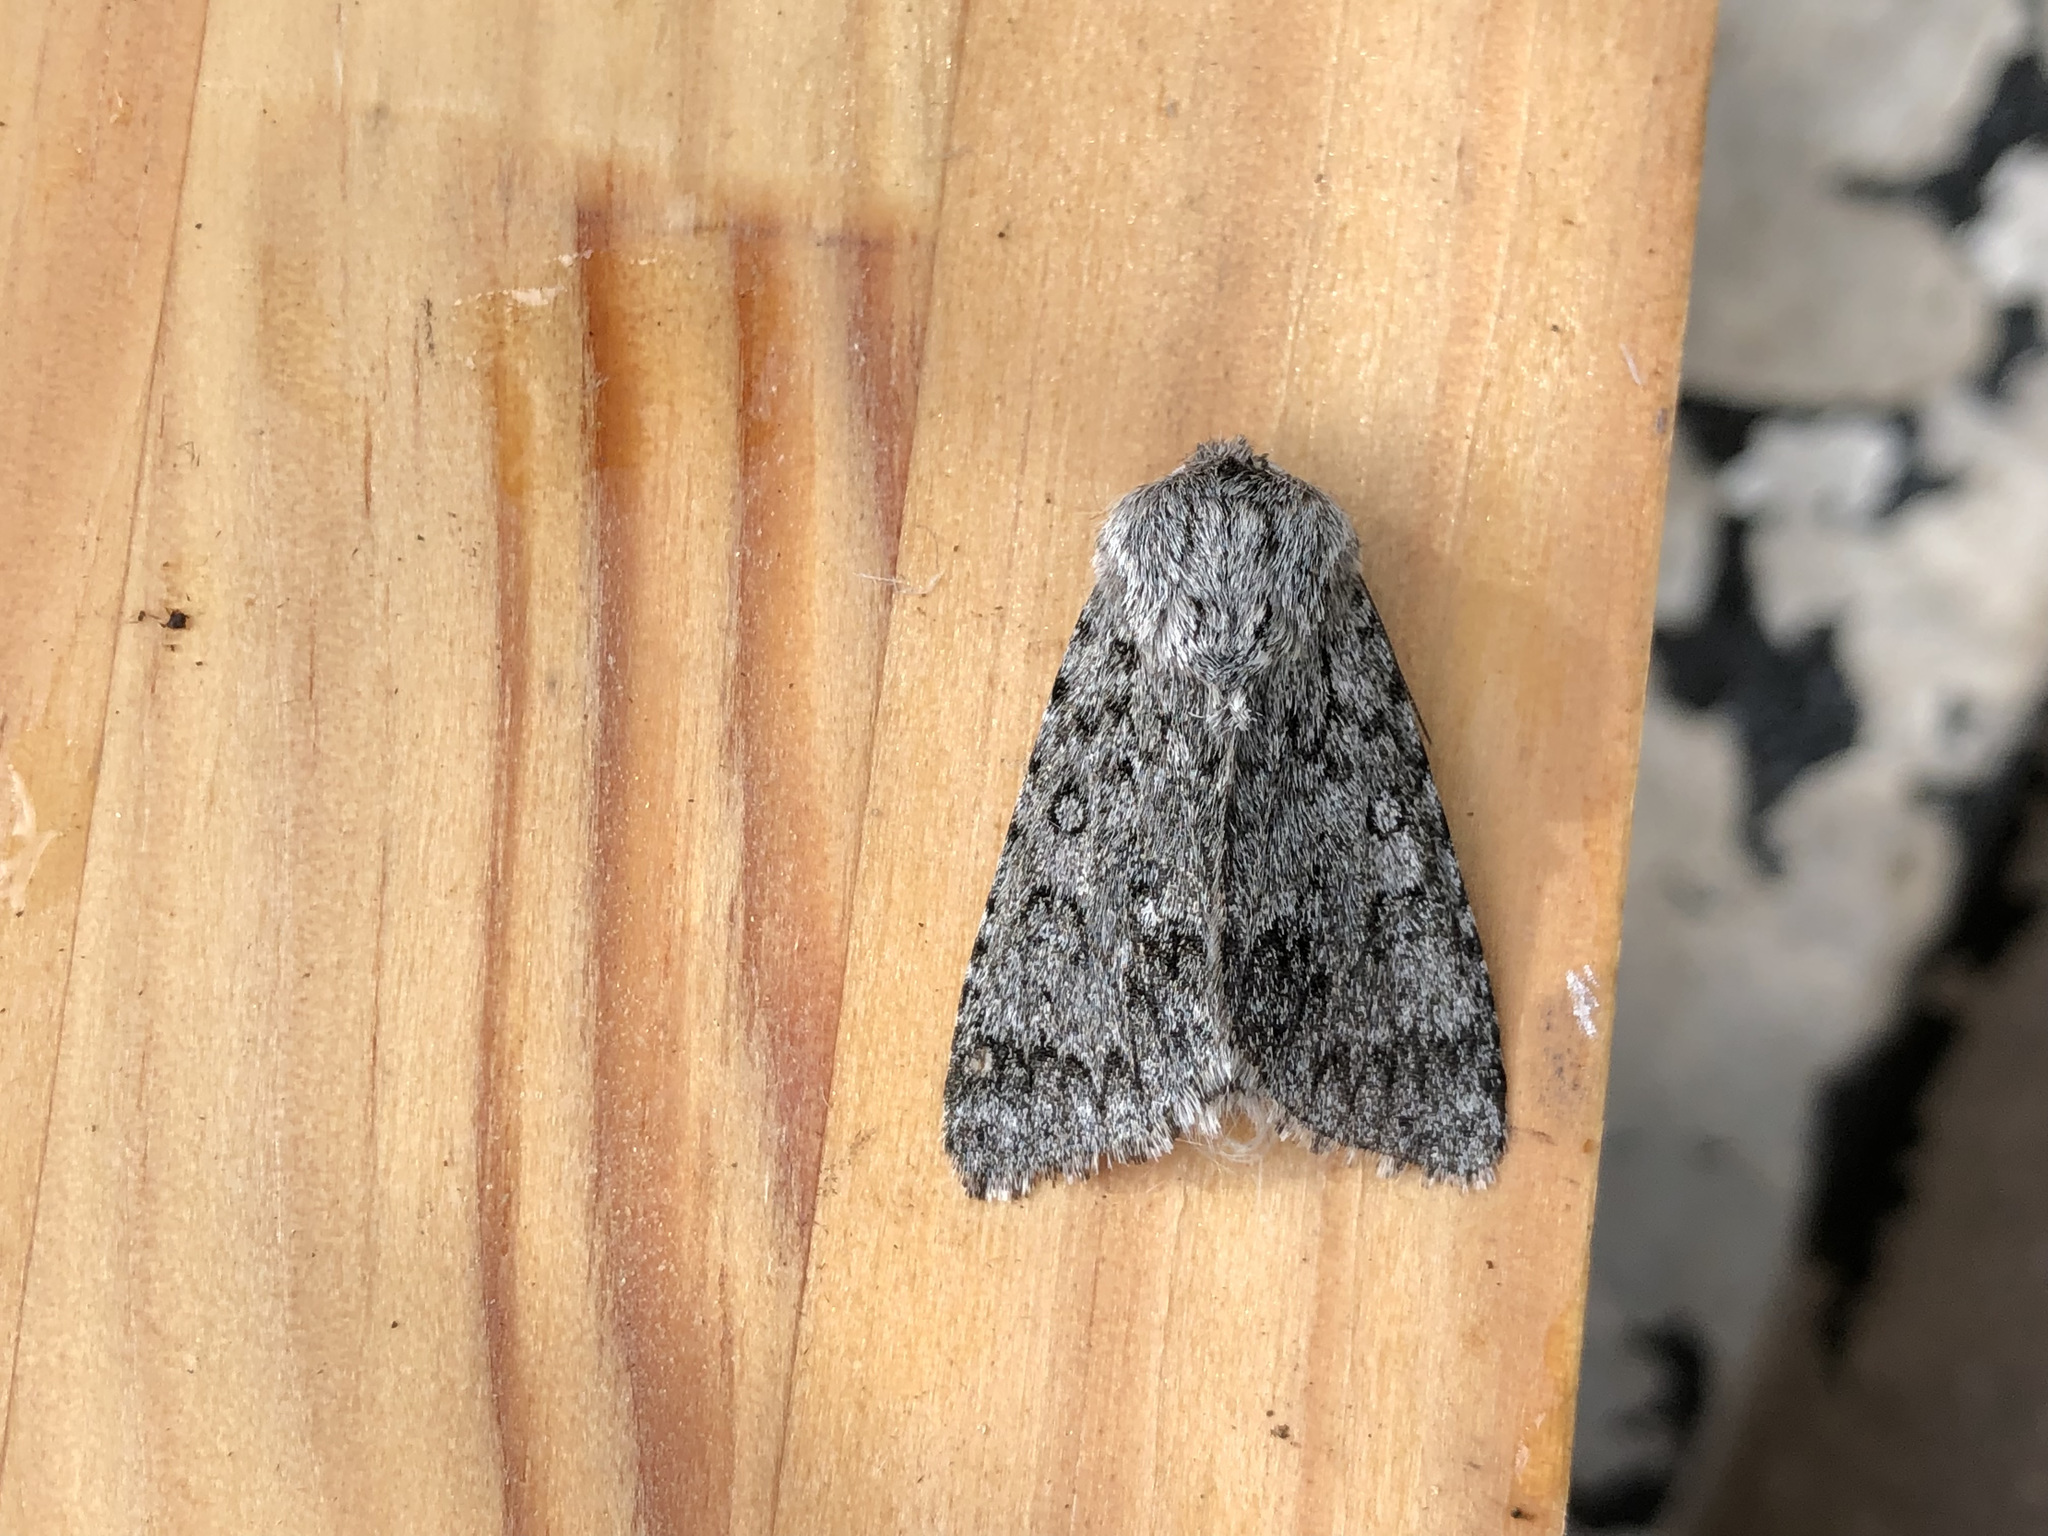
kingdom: Animalia
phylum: Arthropoda
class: Insecta
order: Lepidoptera
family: Noctuidae
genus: Acronicta
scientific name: Acronicta euphorbiae
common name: Sweet gale moth
